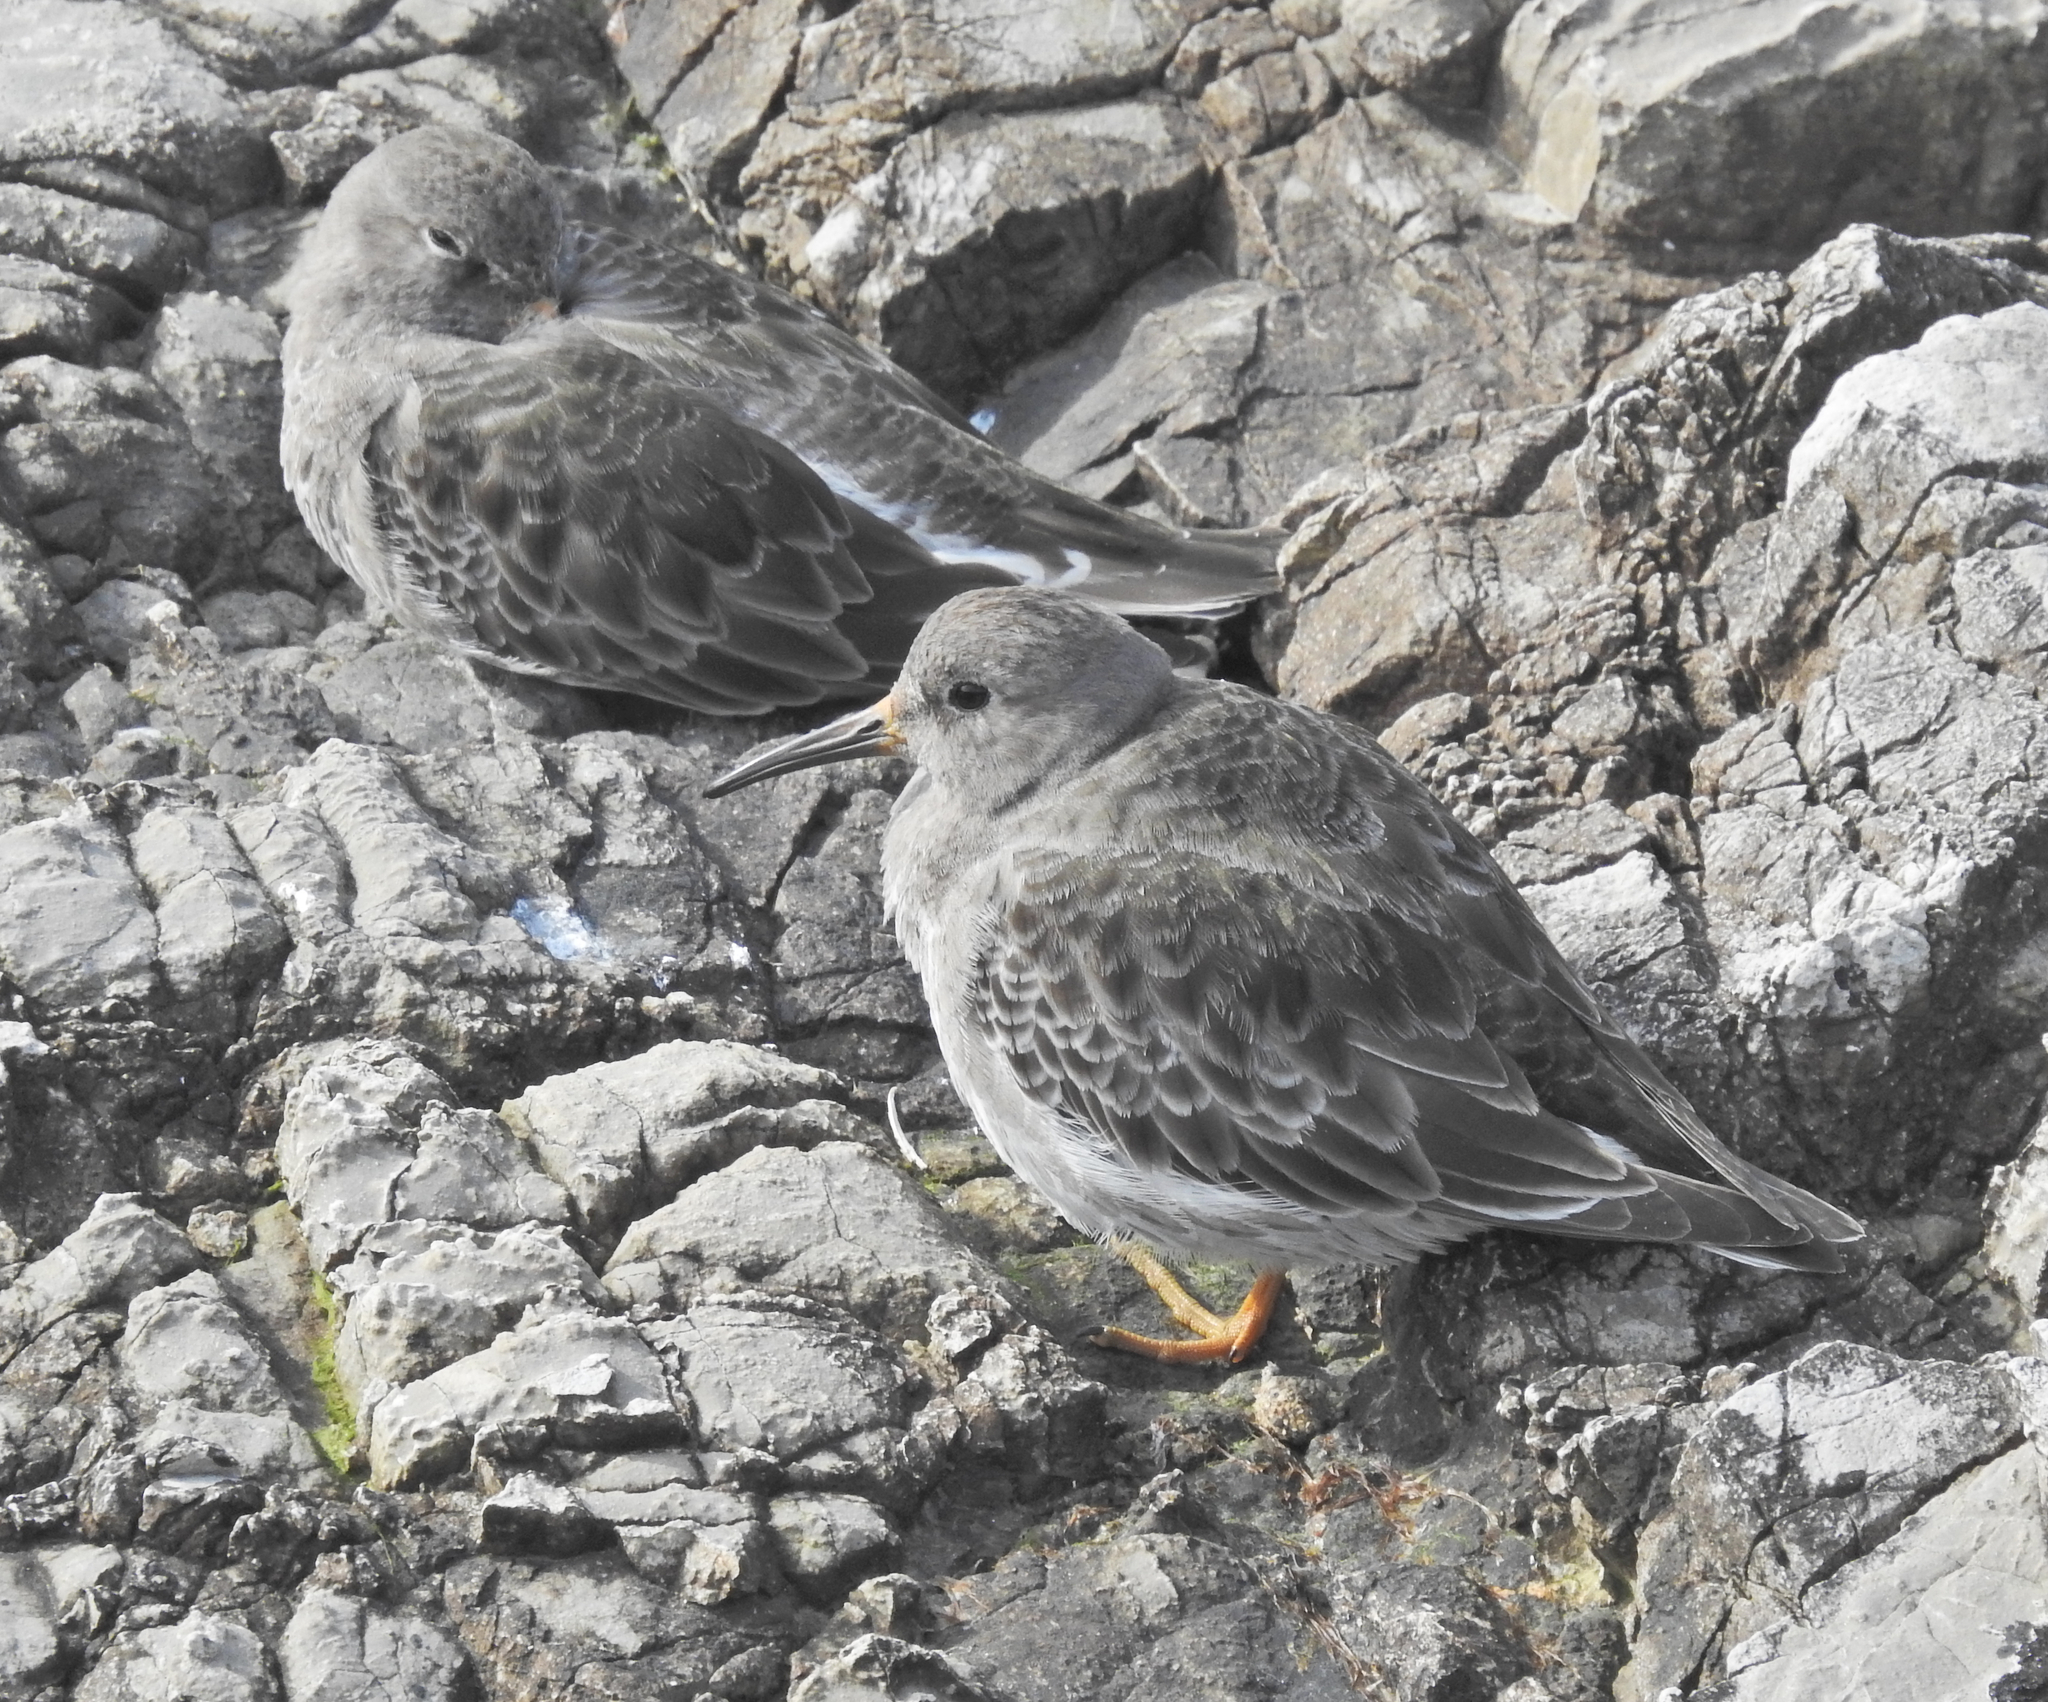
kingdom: Animalia
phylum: Chordata
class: Aves
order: Charadriiformes
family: Scolopacidae
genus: Calidris
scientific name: Calidris maritima
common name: Purple sandpiper
